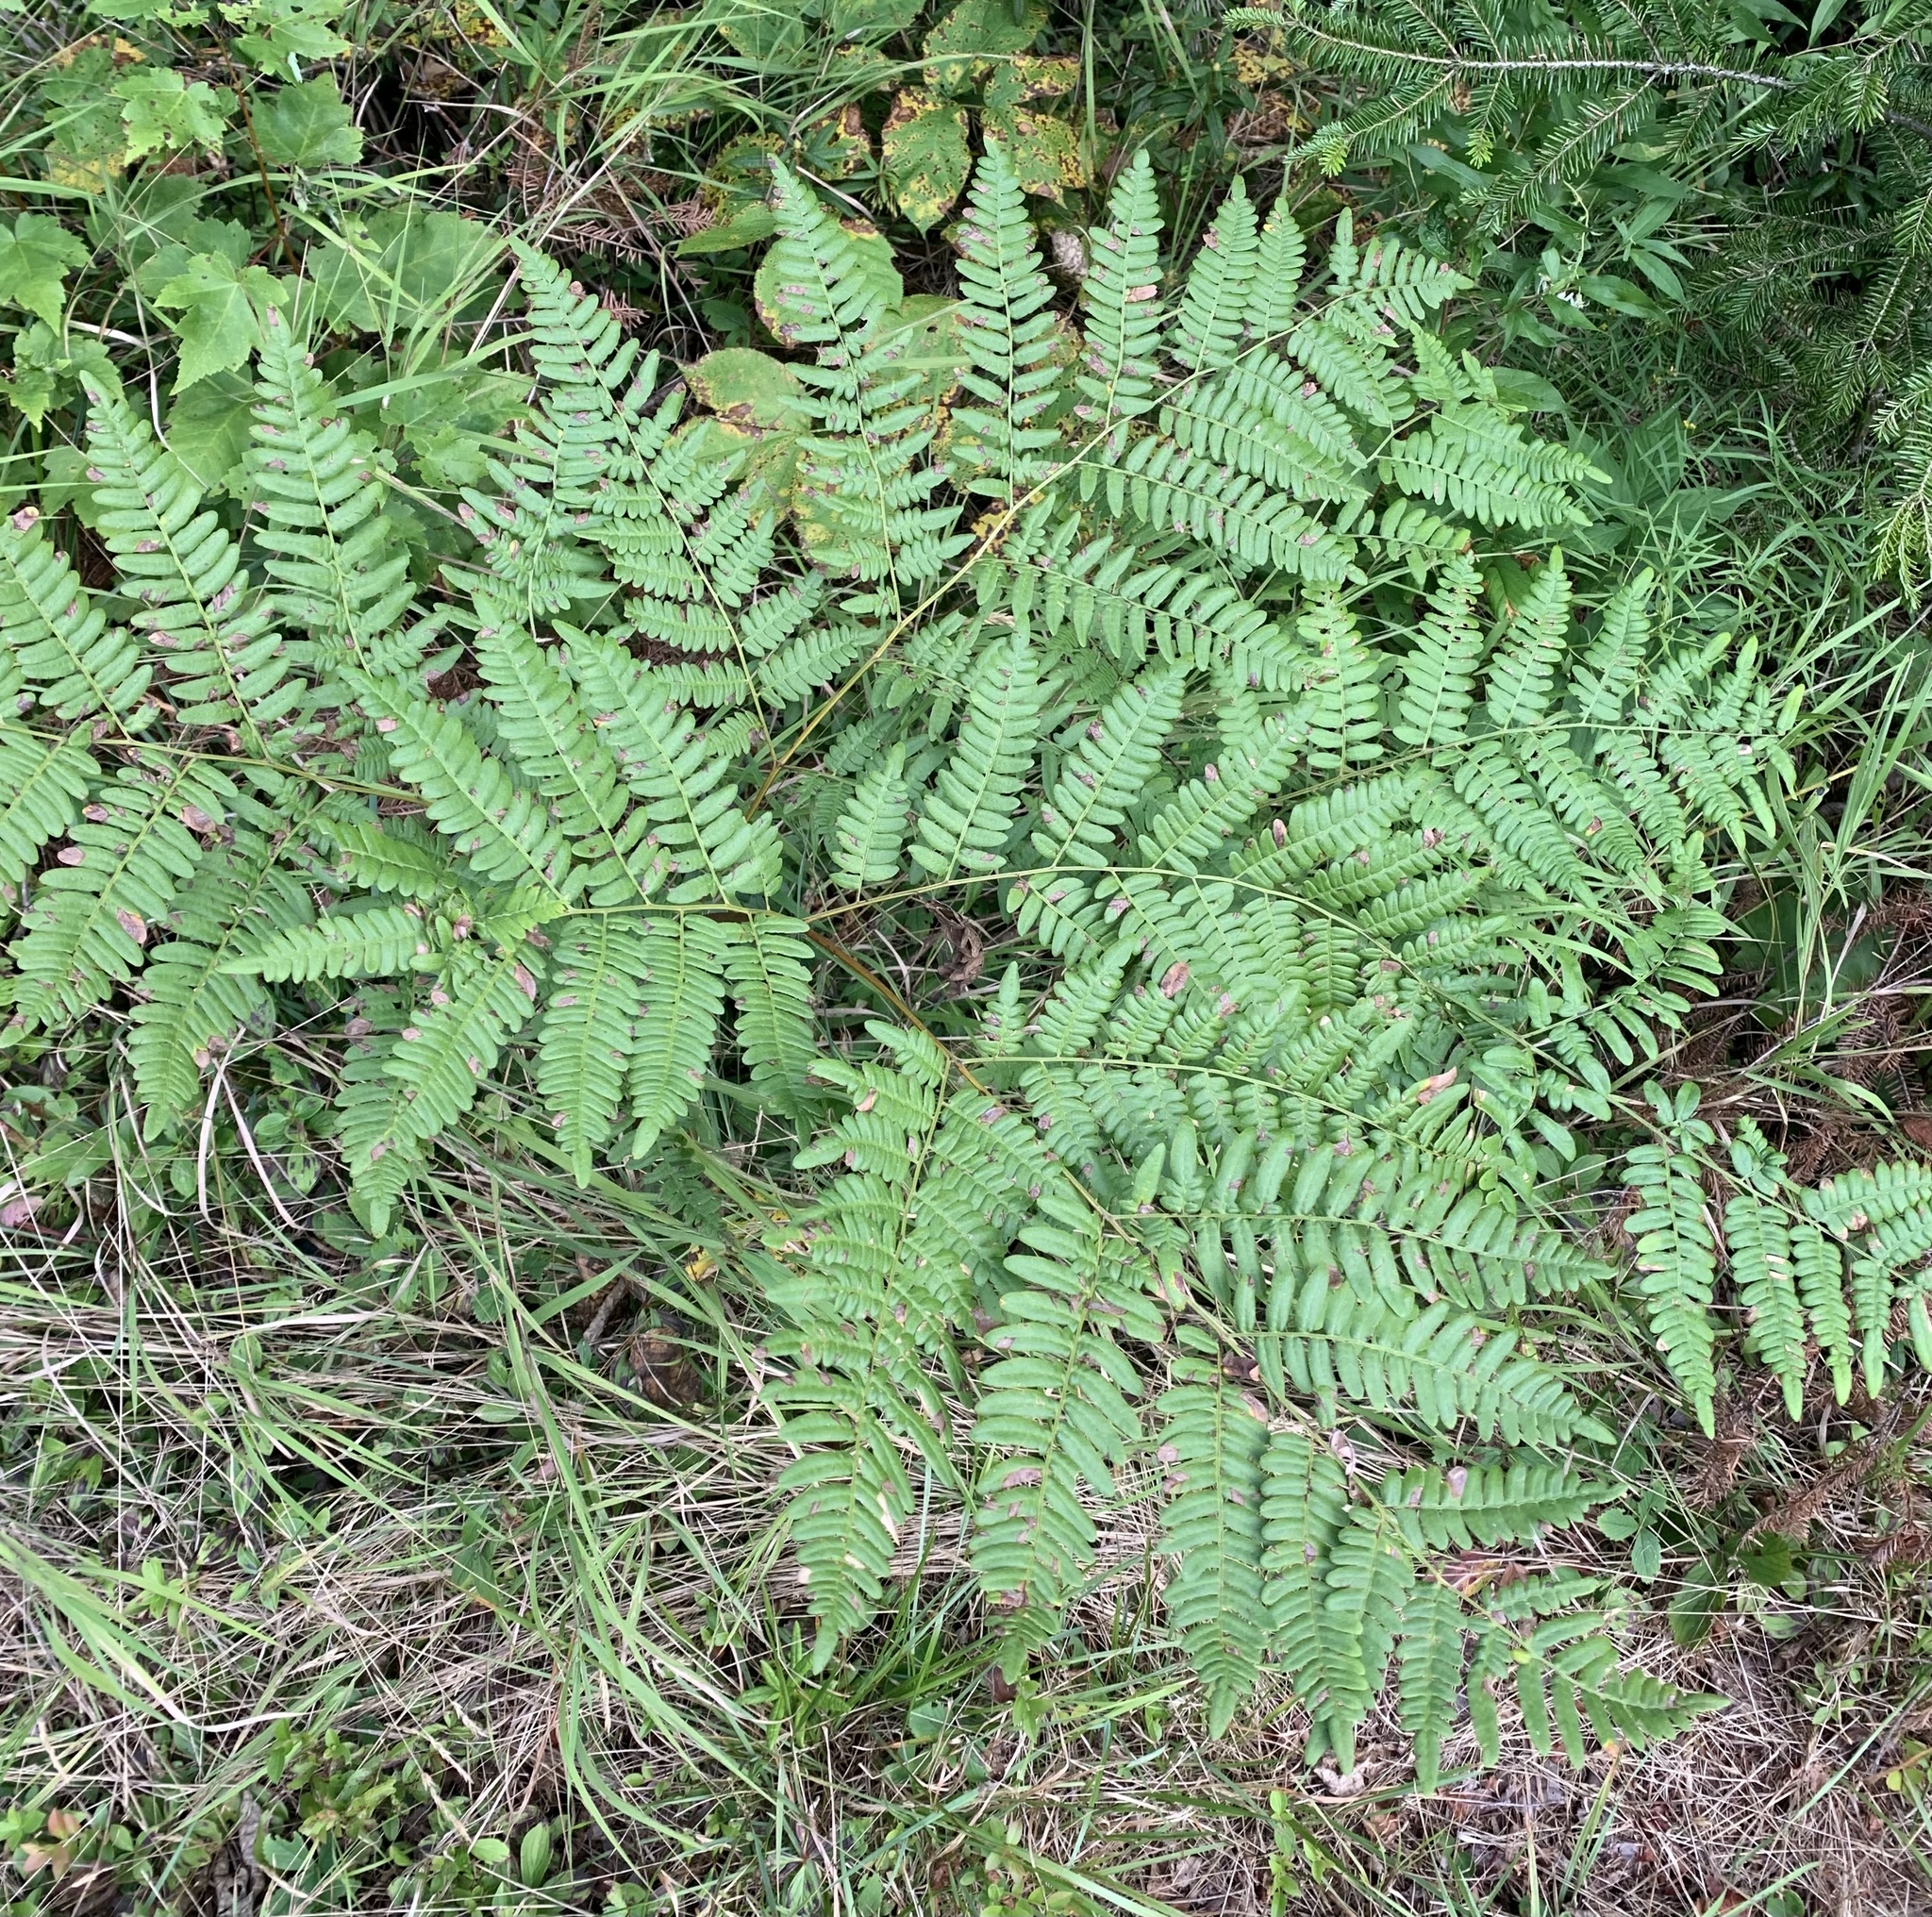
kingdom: Plantae
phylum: Tracheophyta
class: Polypodiopsida
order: Polypodiales
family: Dennstaedtiaceae
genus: Pteridium
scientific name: Pteridium aquilinum
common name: Bracken
